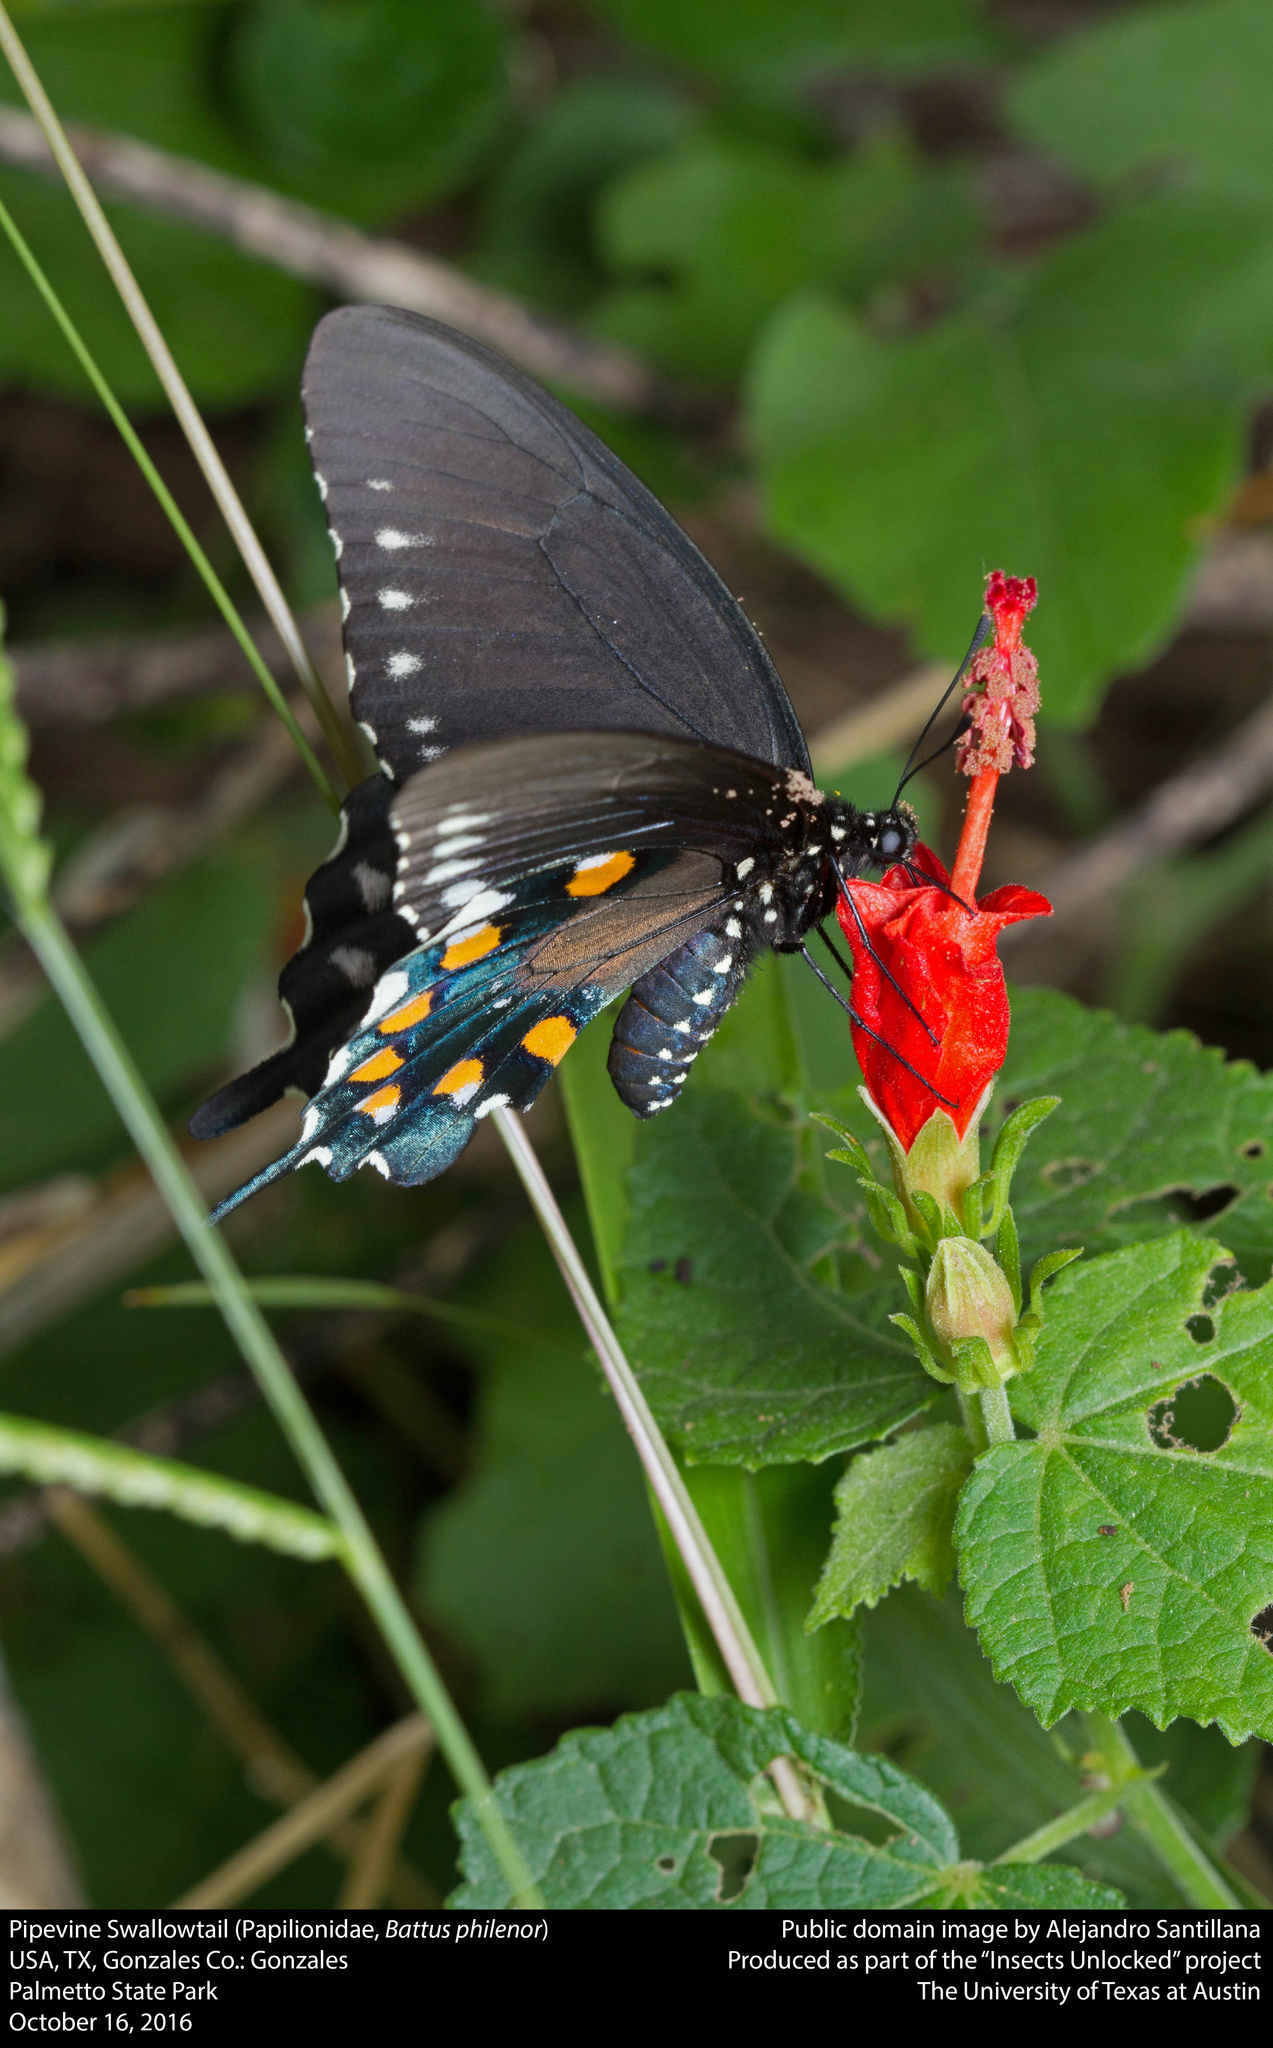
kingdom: Animalia
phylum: Arthropoda
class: Insecta
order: Lepidoptera
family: Papilionidae
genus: Battus
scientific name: Battus philenor
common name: Pipevine swallowtail
